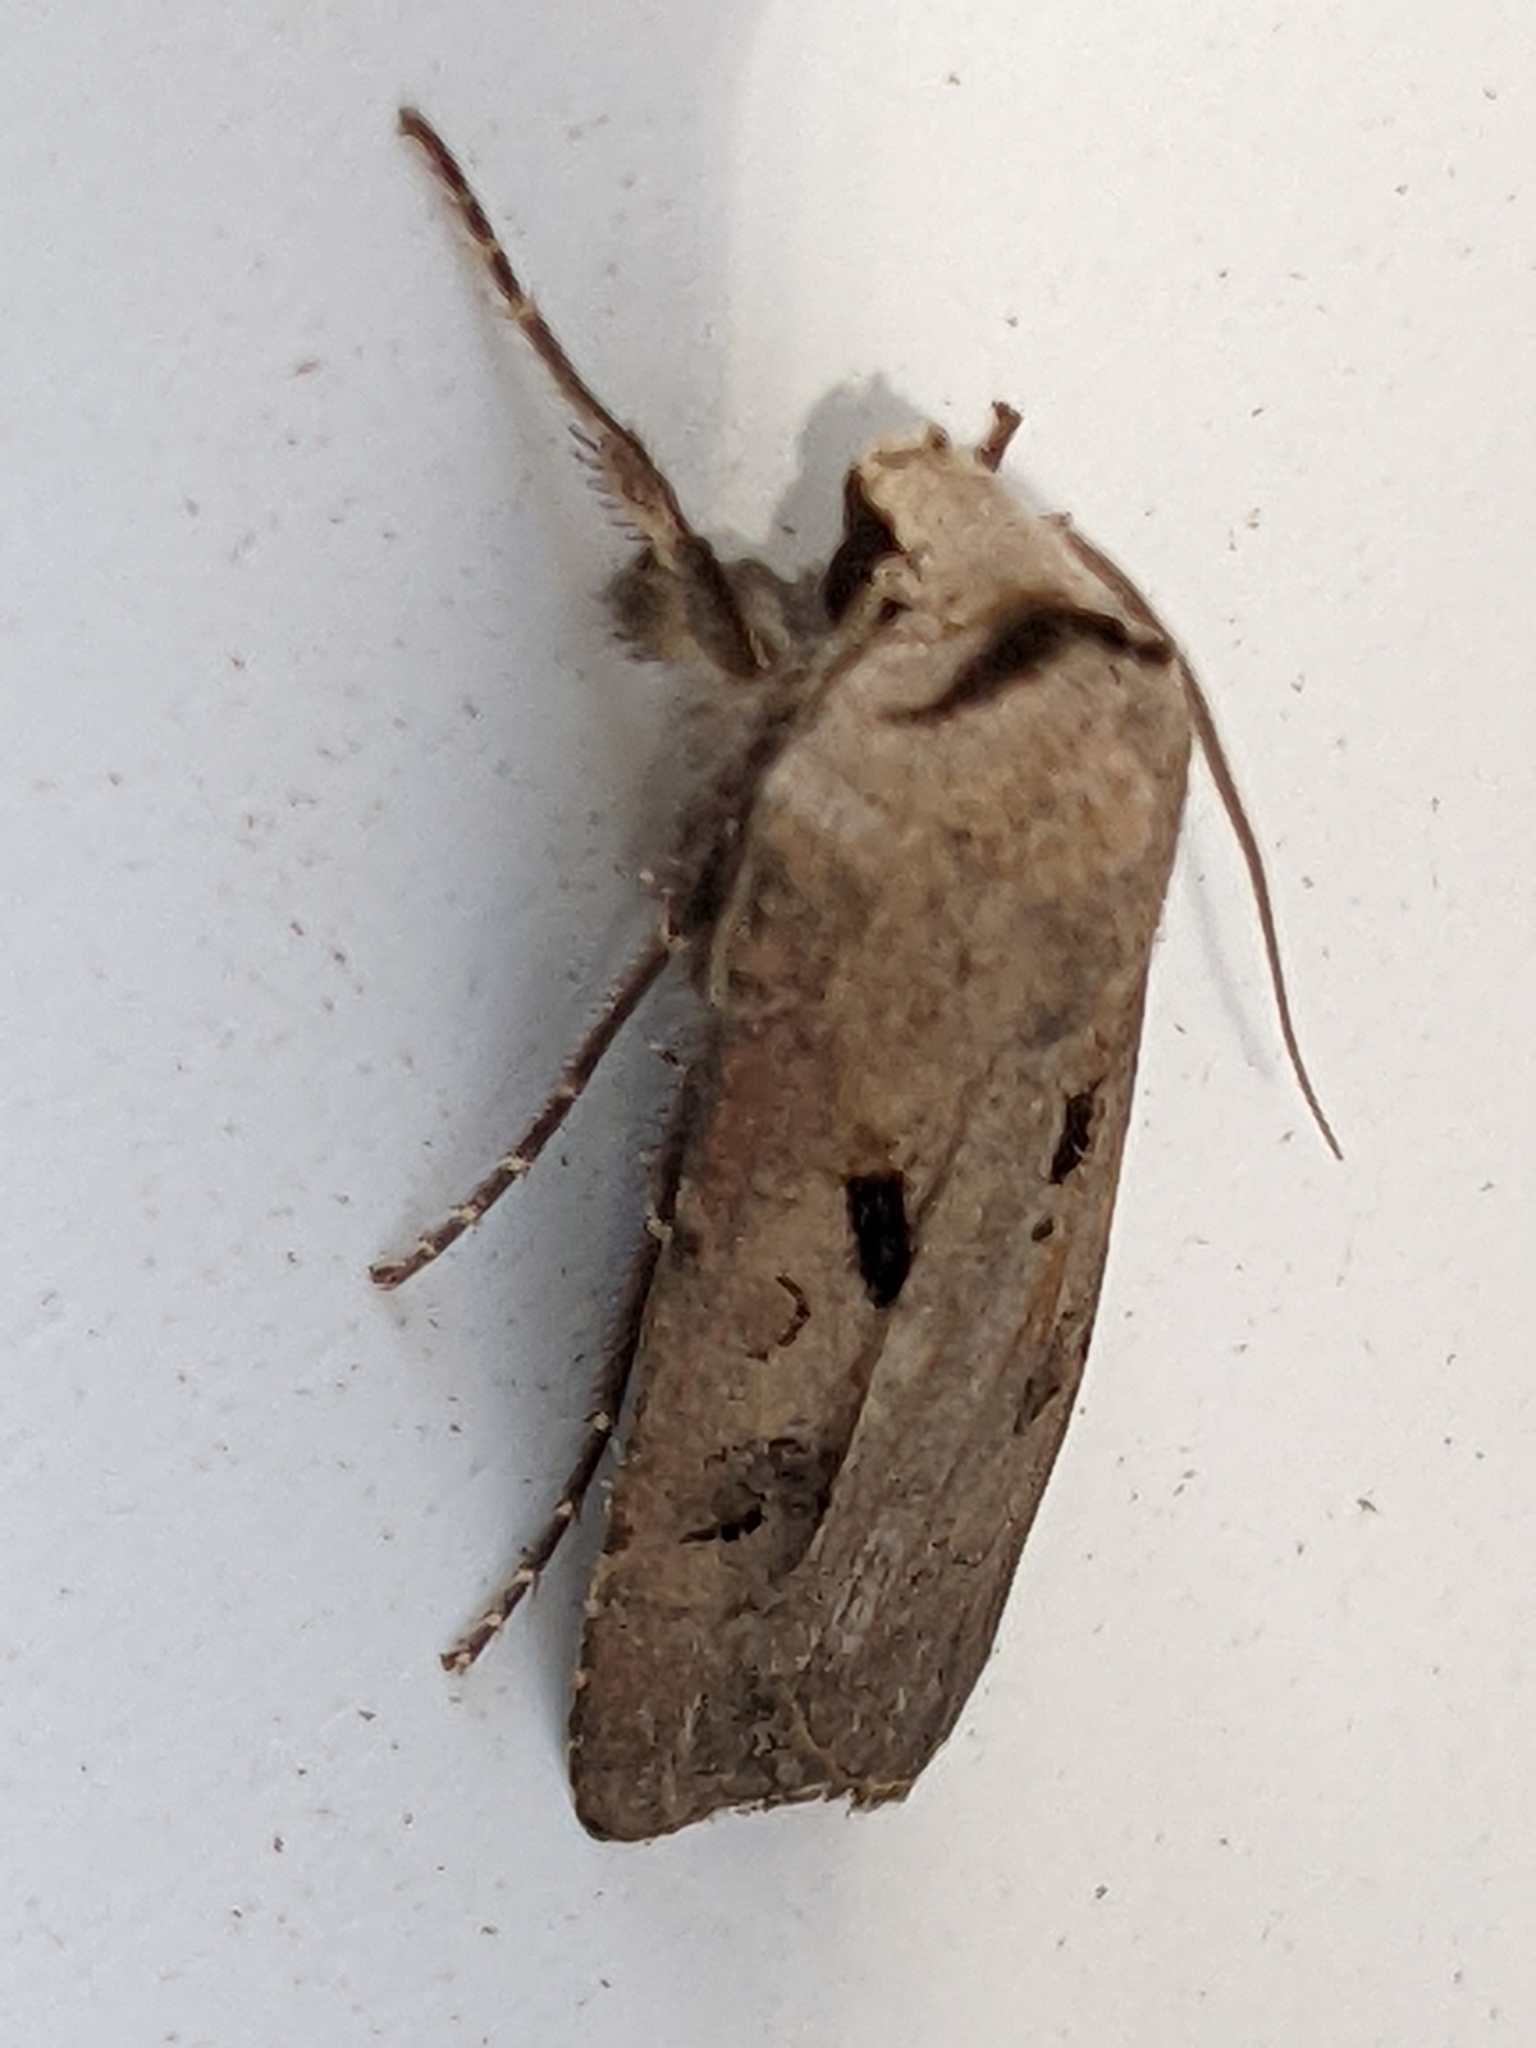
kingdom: Animalia
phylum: Arthropoda
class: Insecta
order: Lepidoptera
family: Noctuidae
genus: Agrotis
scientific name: Agrotis exclamationis
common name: Heart and dart
